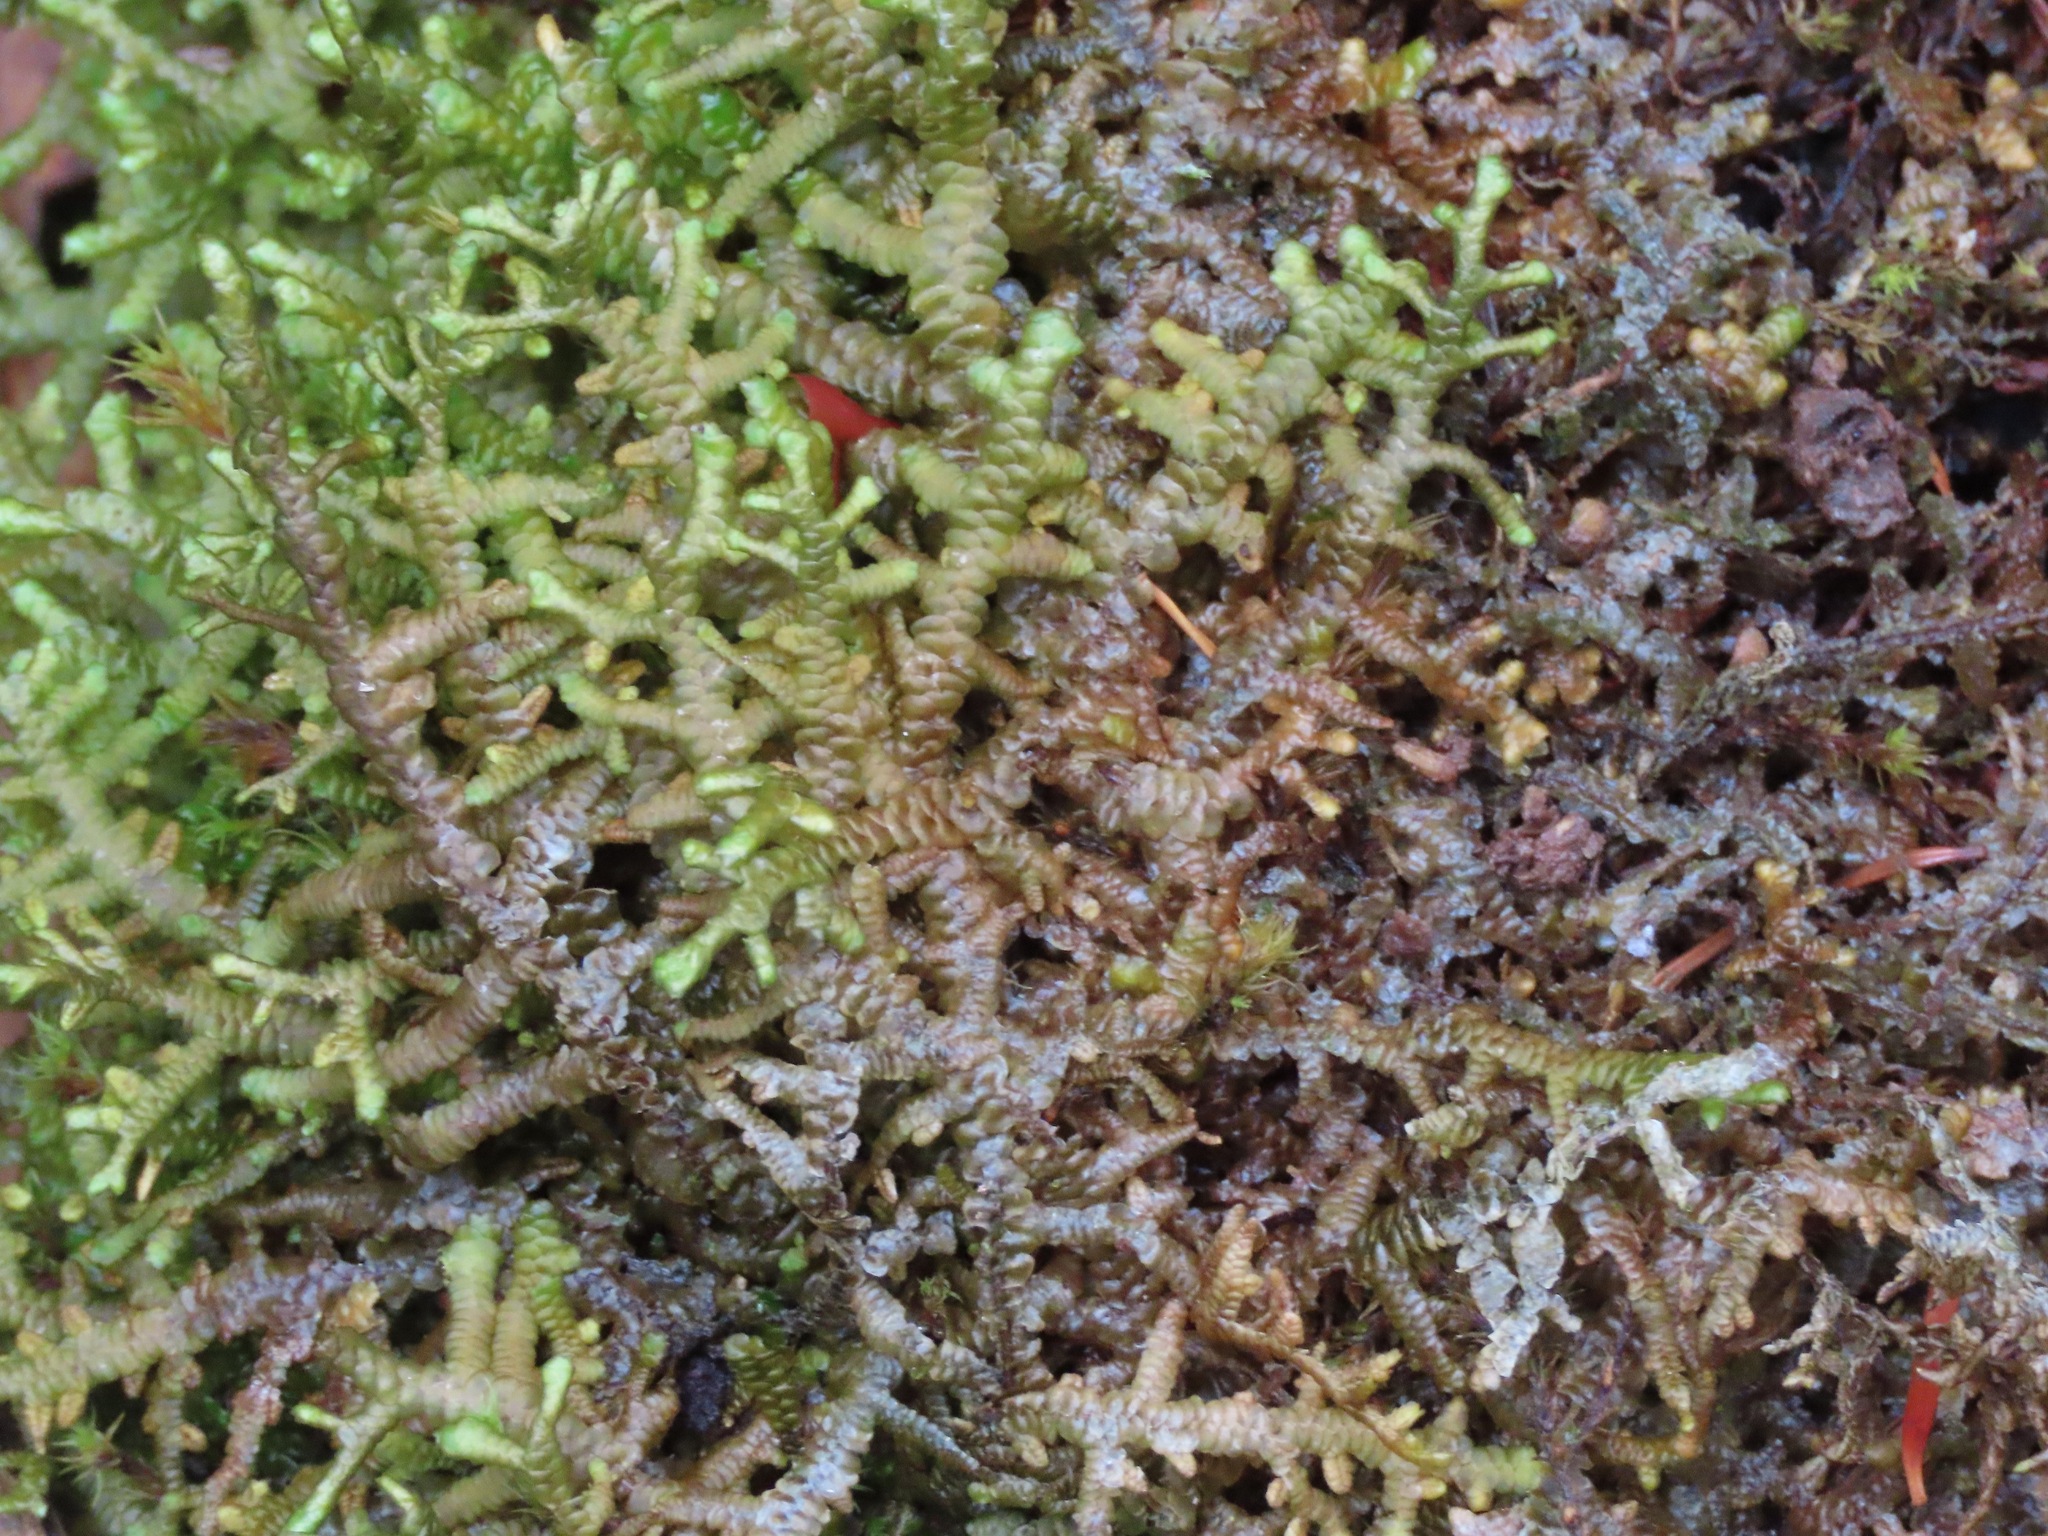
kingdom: Plantae
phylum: Marchantiophyta
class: Jungermanniopsida
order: Porellales
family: Porellaceae
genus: Porella
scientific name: Porella navicularis
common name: Tree ruffle liverwort
